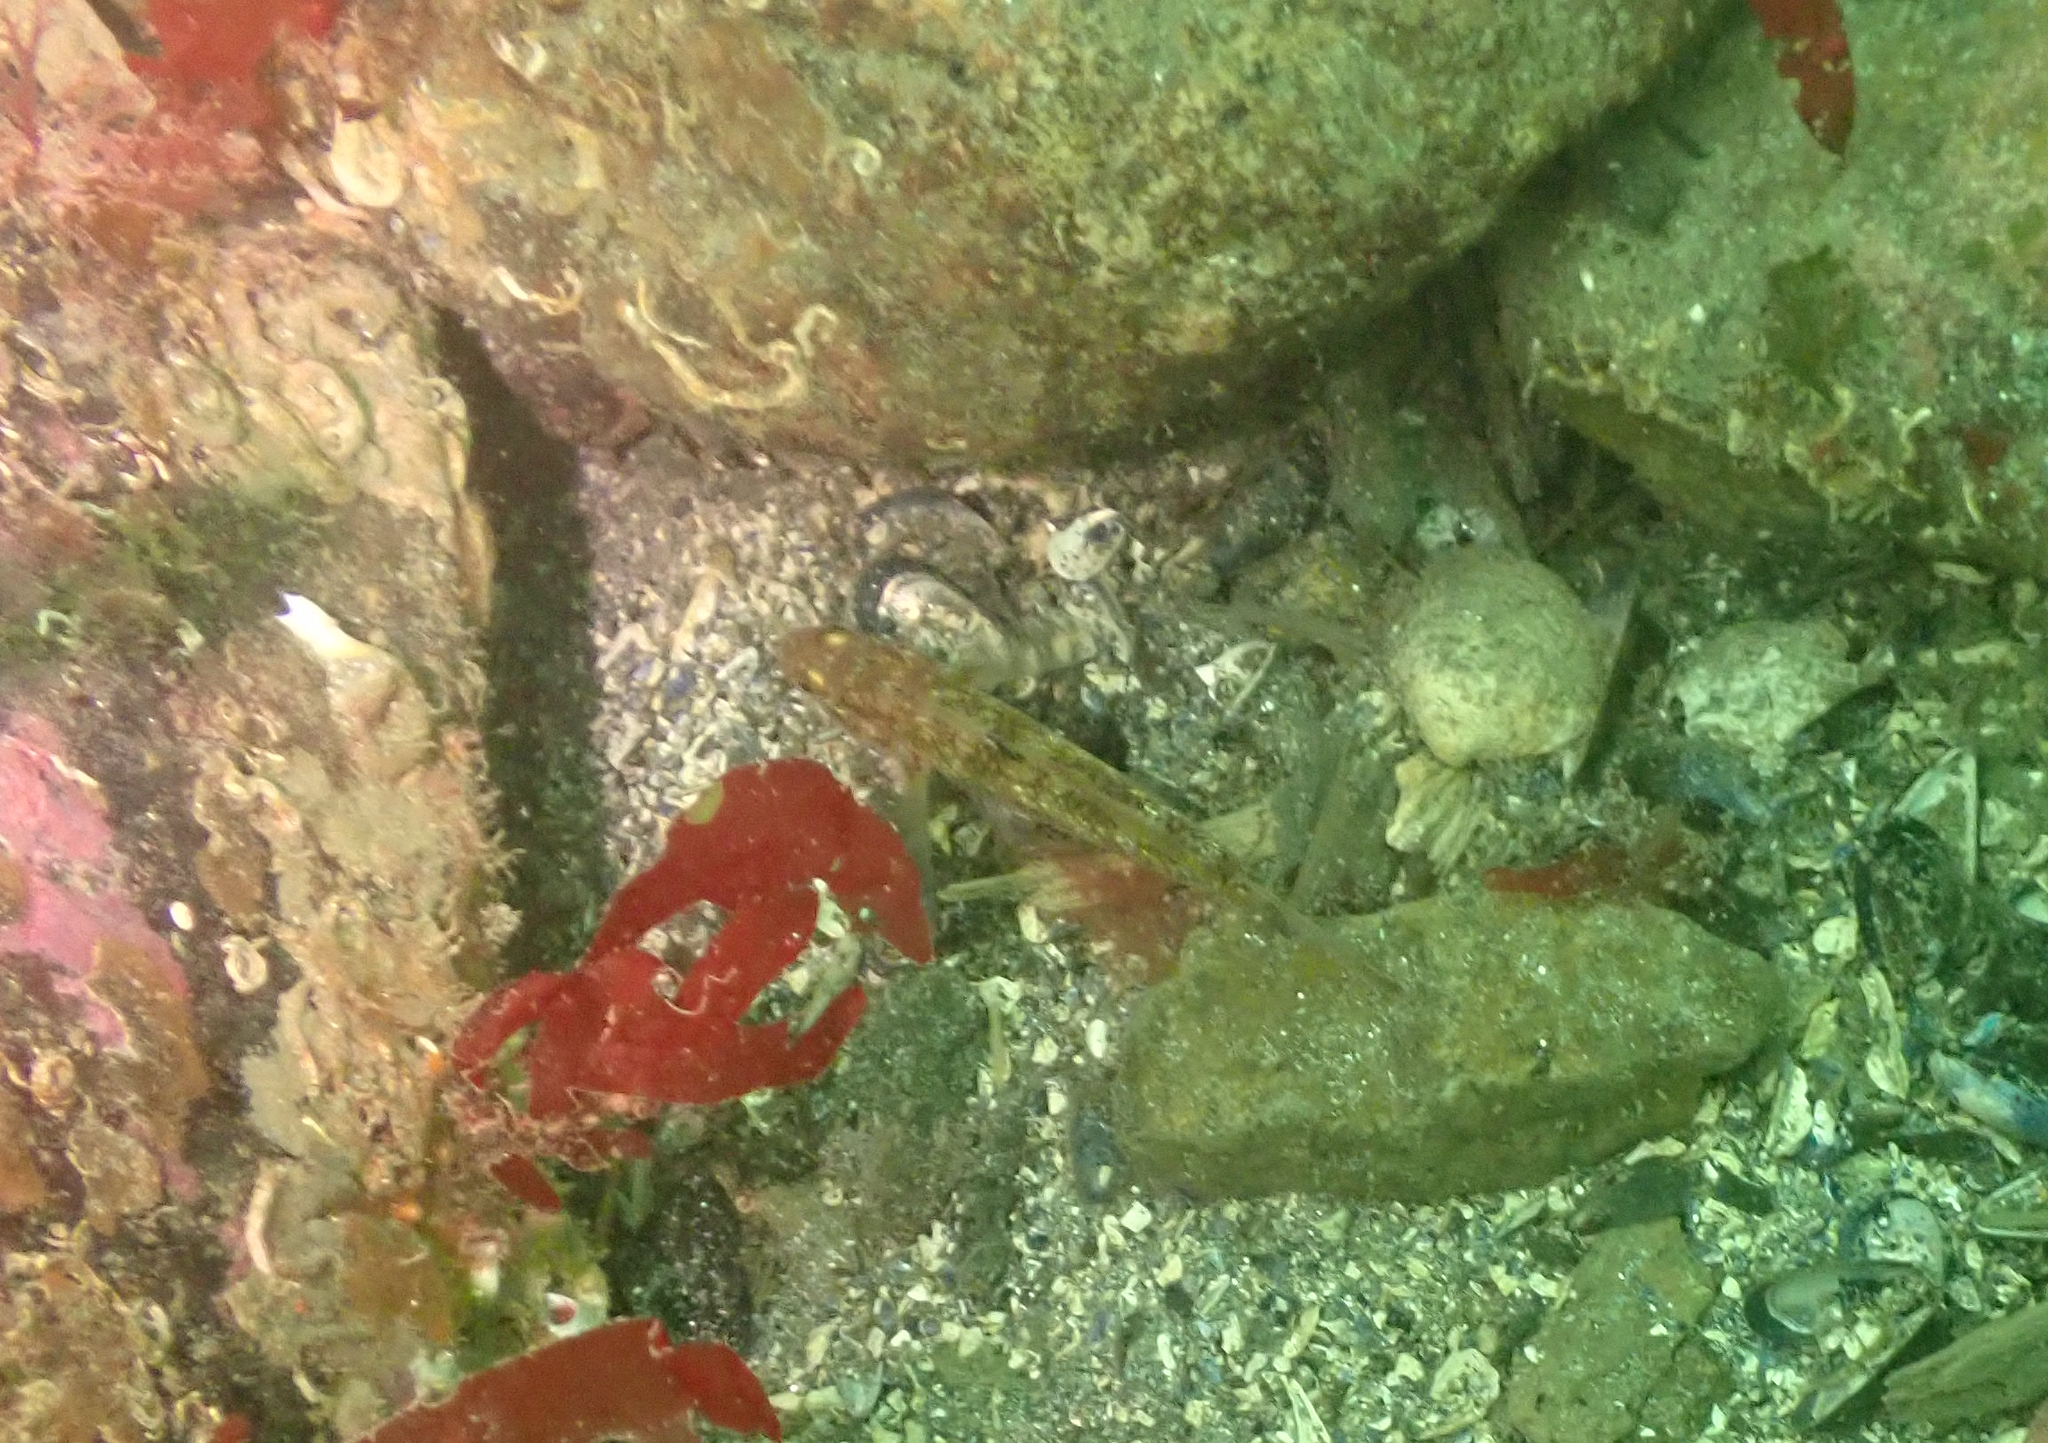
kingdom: Animalia
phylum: Chordata
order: Perciformes
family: Gobiidae
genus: Rhinogobiops
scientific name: Rhinogobiops nicholsii
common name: Blackeye goby
